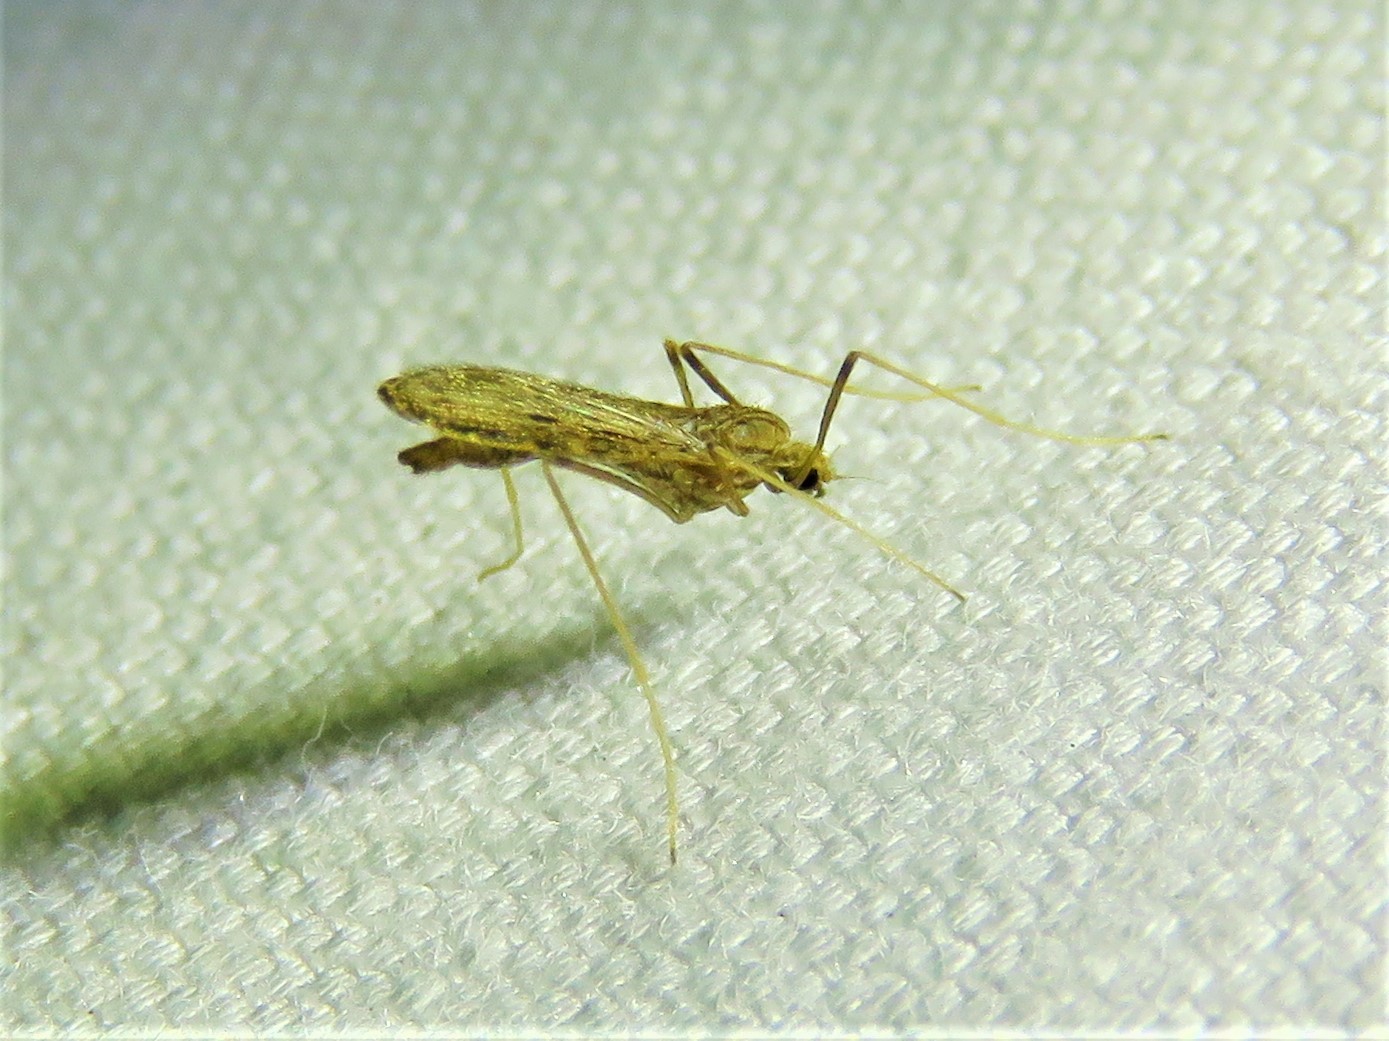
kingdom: Animalia
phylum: Arthropoda
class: Insecta
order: Diptera
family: Limoniidae
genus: Erioptera
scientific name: Erioptera tantilla
